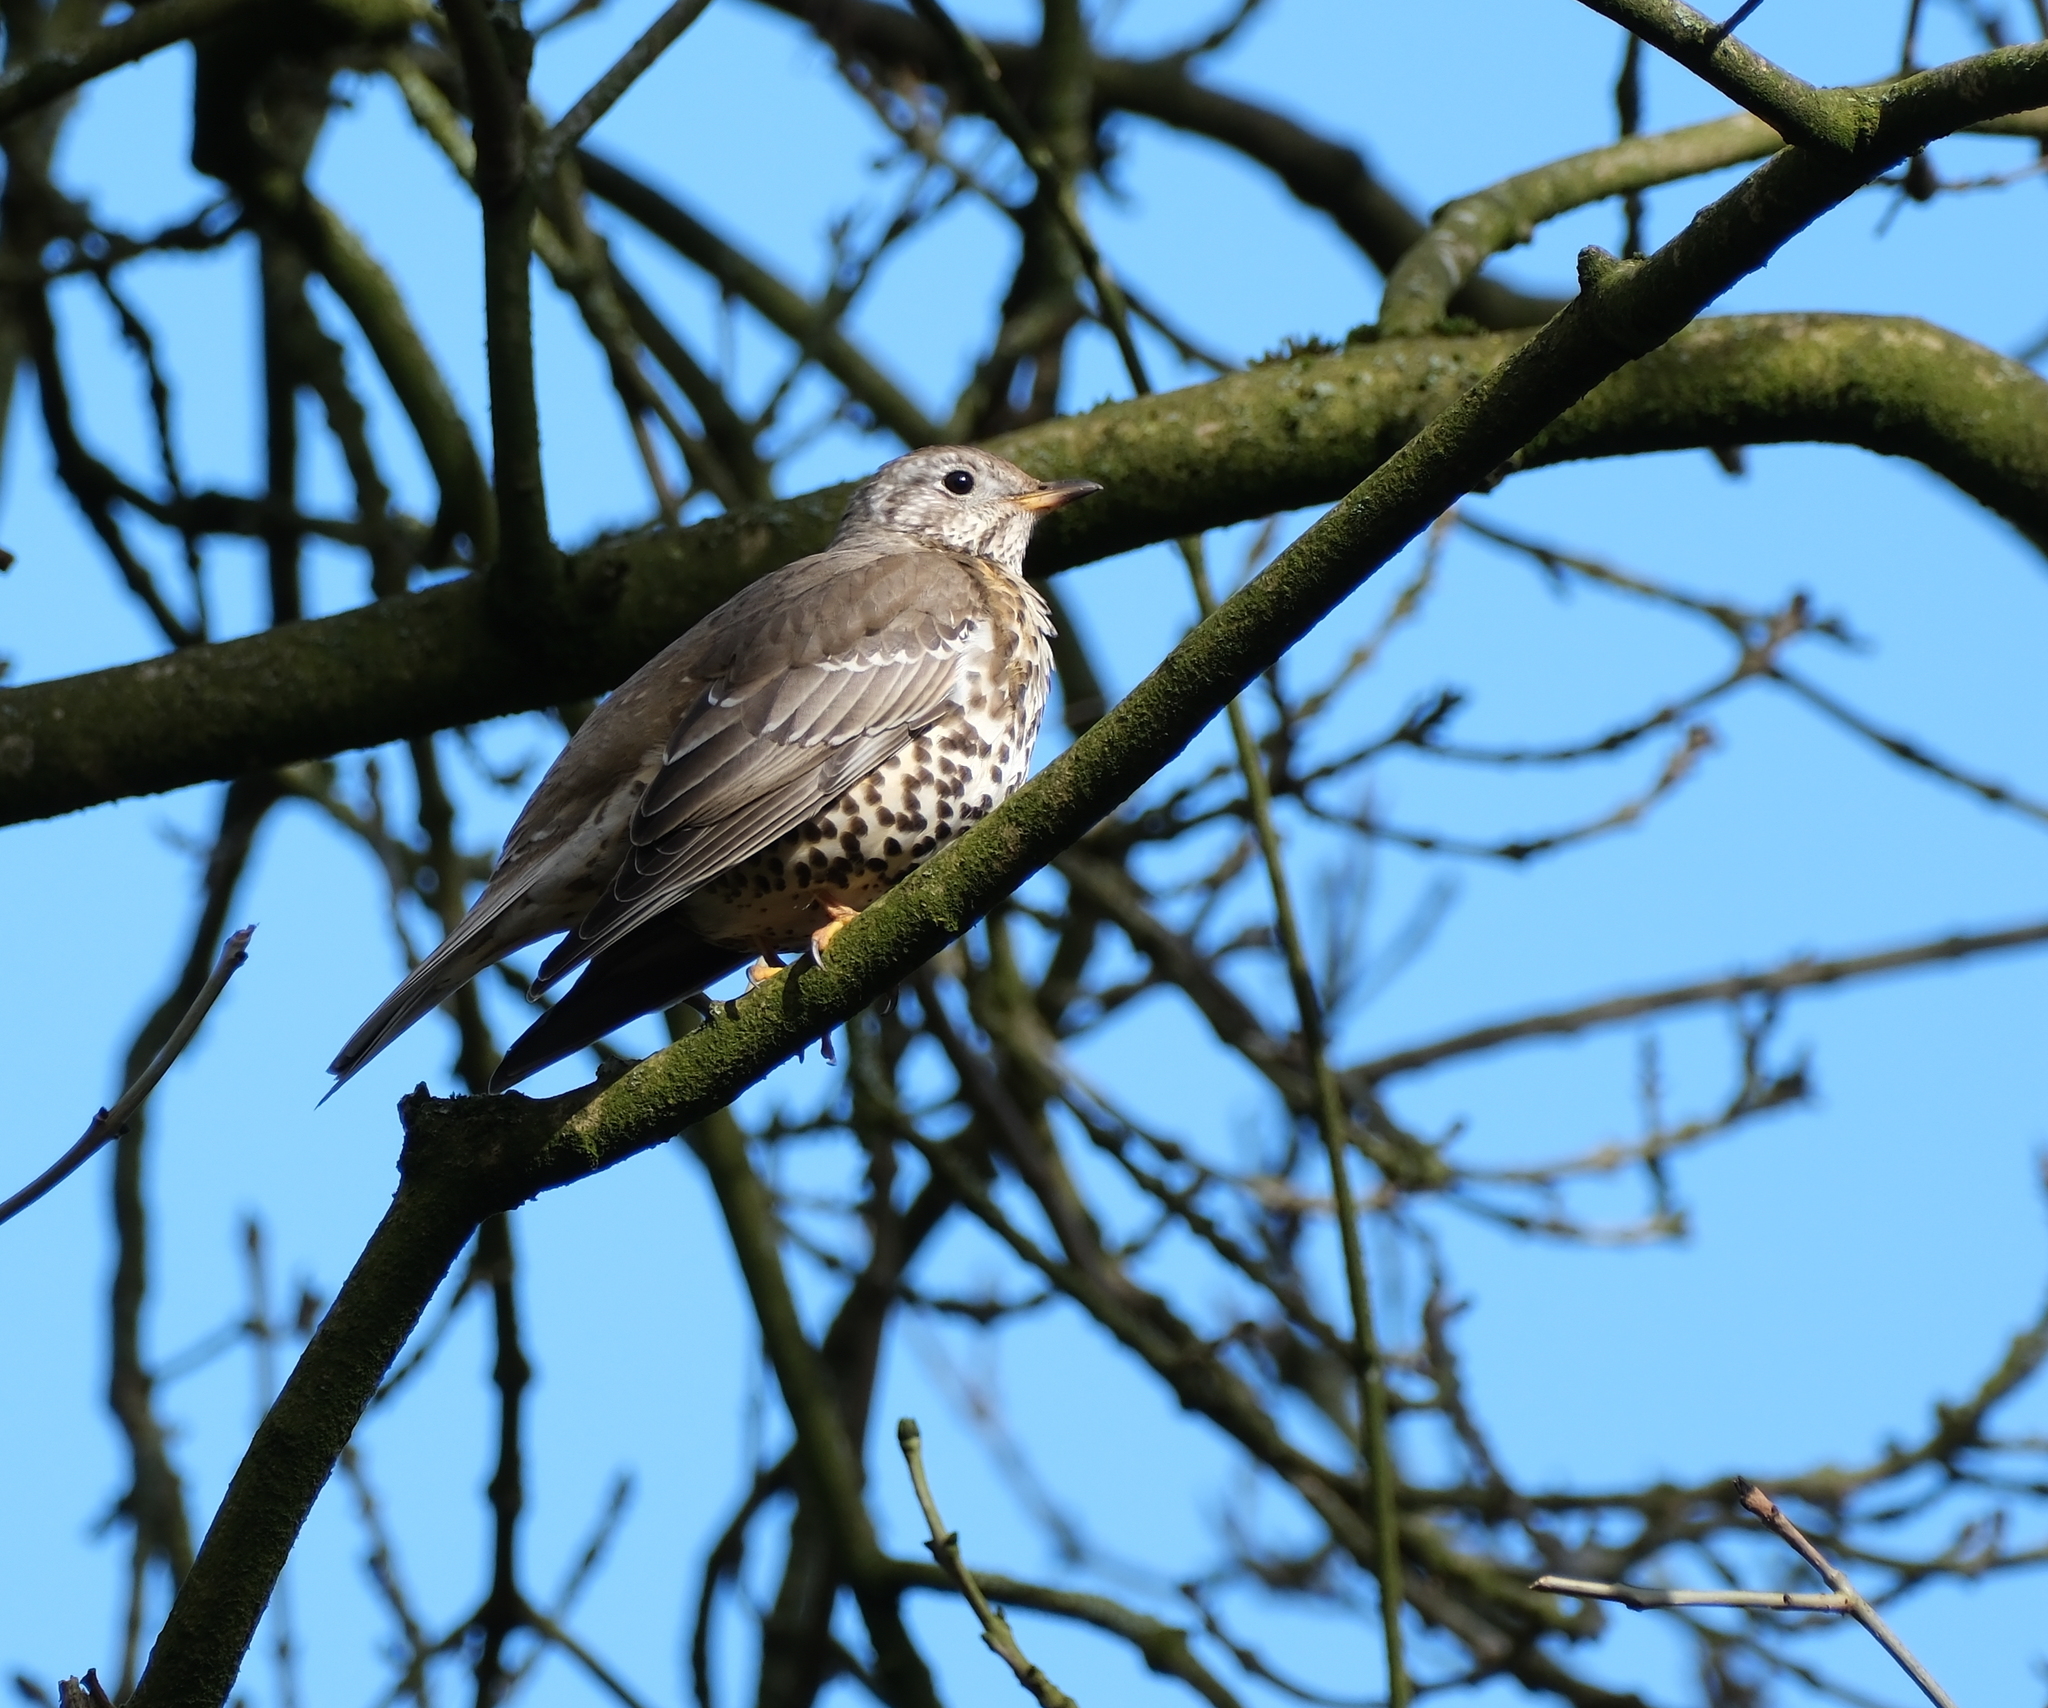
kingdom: Animalia
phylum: Chordata
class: Aves
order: Passeriformes
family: Turdidae
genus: Turdus
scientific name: Turdus viscivorus
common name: Mistle thrush
